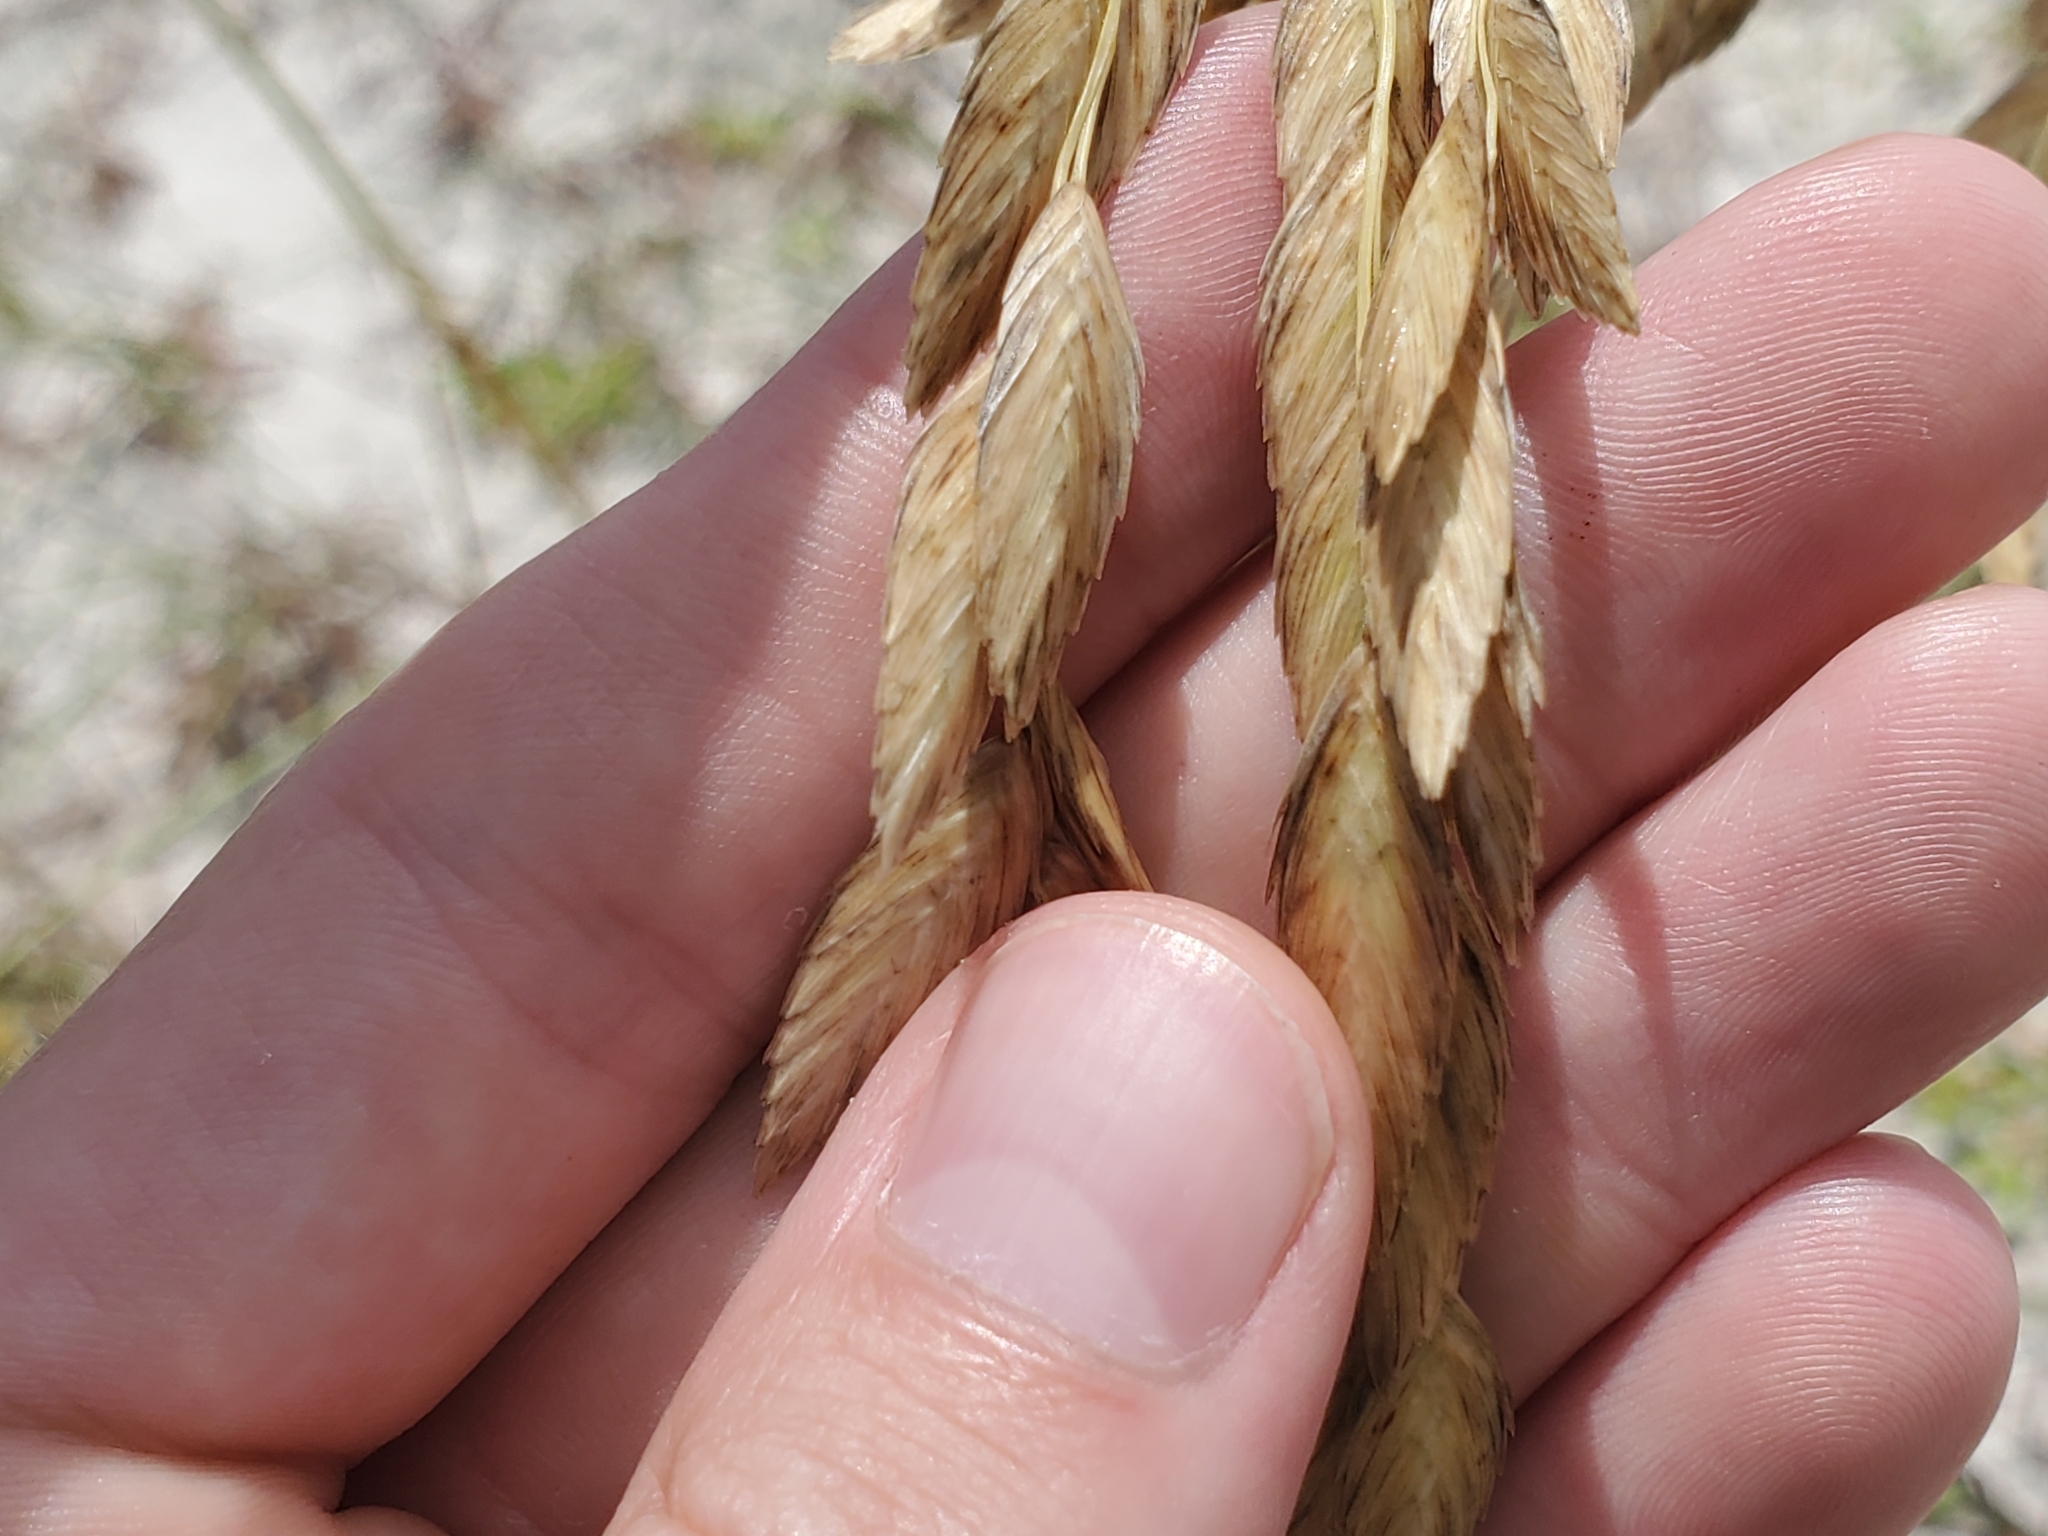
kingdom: Plantae
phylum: Tracheophyta
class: Liliopsida
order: Poales
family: Poaceae
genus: Uniola
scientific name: Uniola paniculata
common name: Seaside-oats
